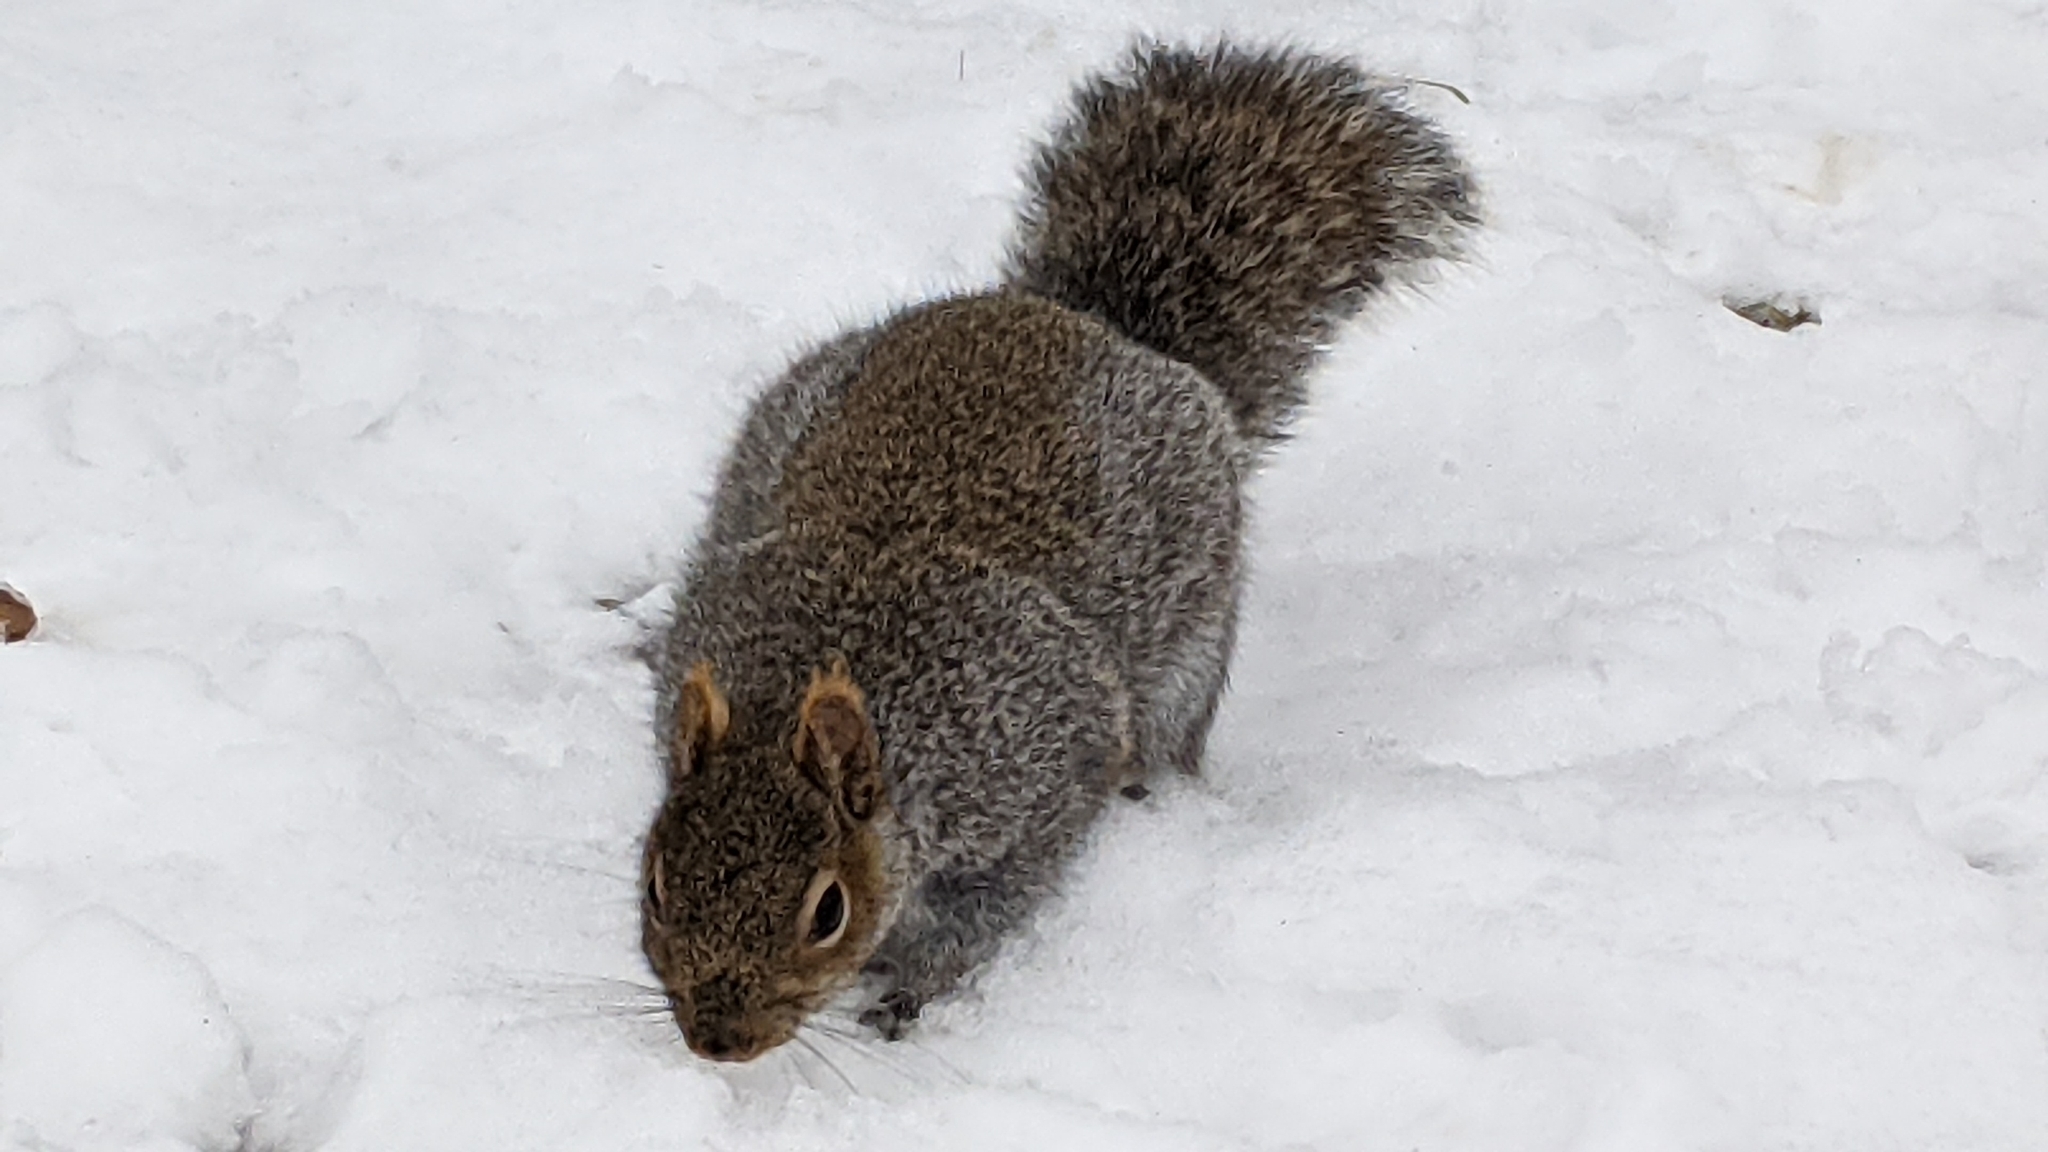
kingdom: Animalia
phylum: Chordata
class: Mammalia
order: Rodentia
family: Sciuridae
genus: Sciurus
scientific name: Sciurus carolinensis
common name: Eastern gray squirrel
